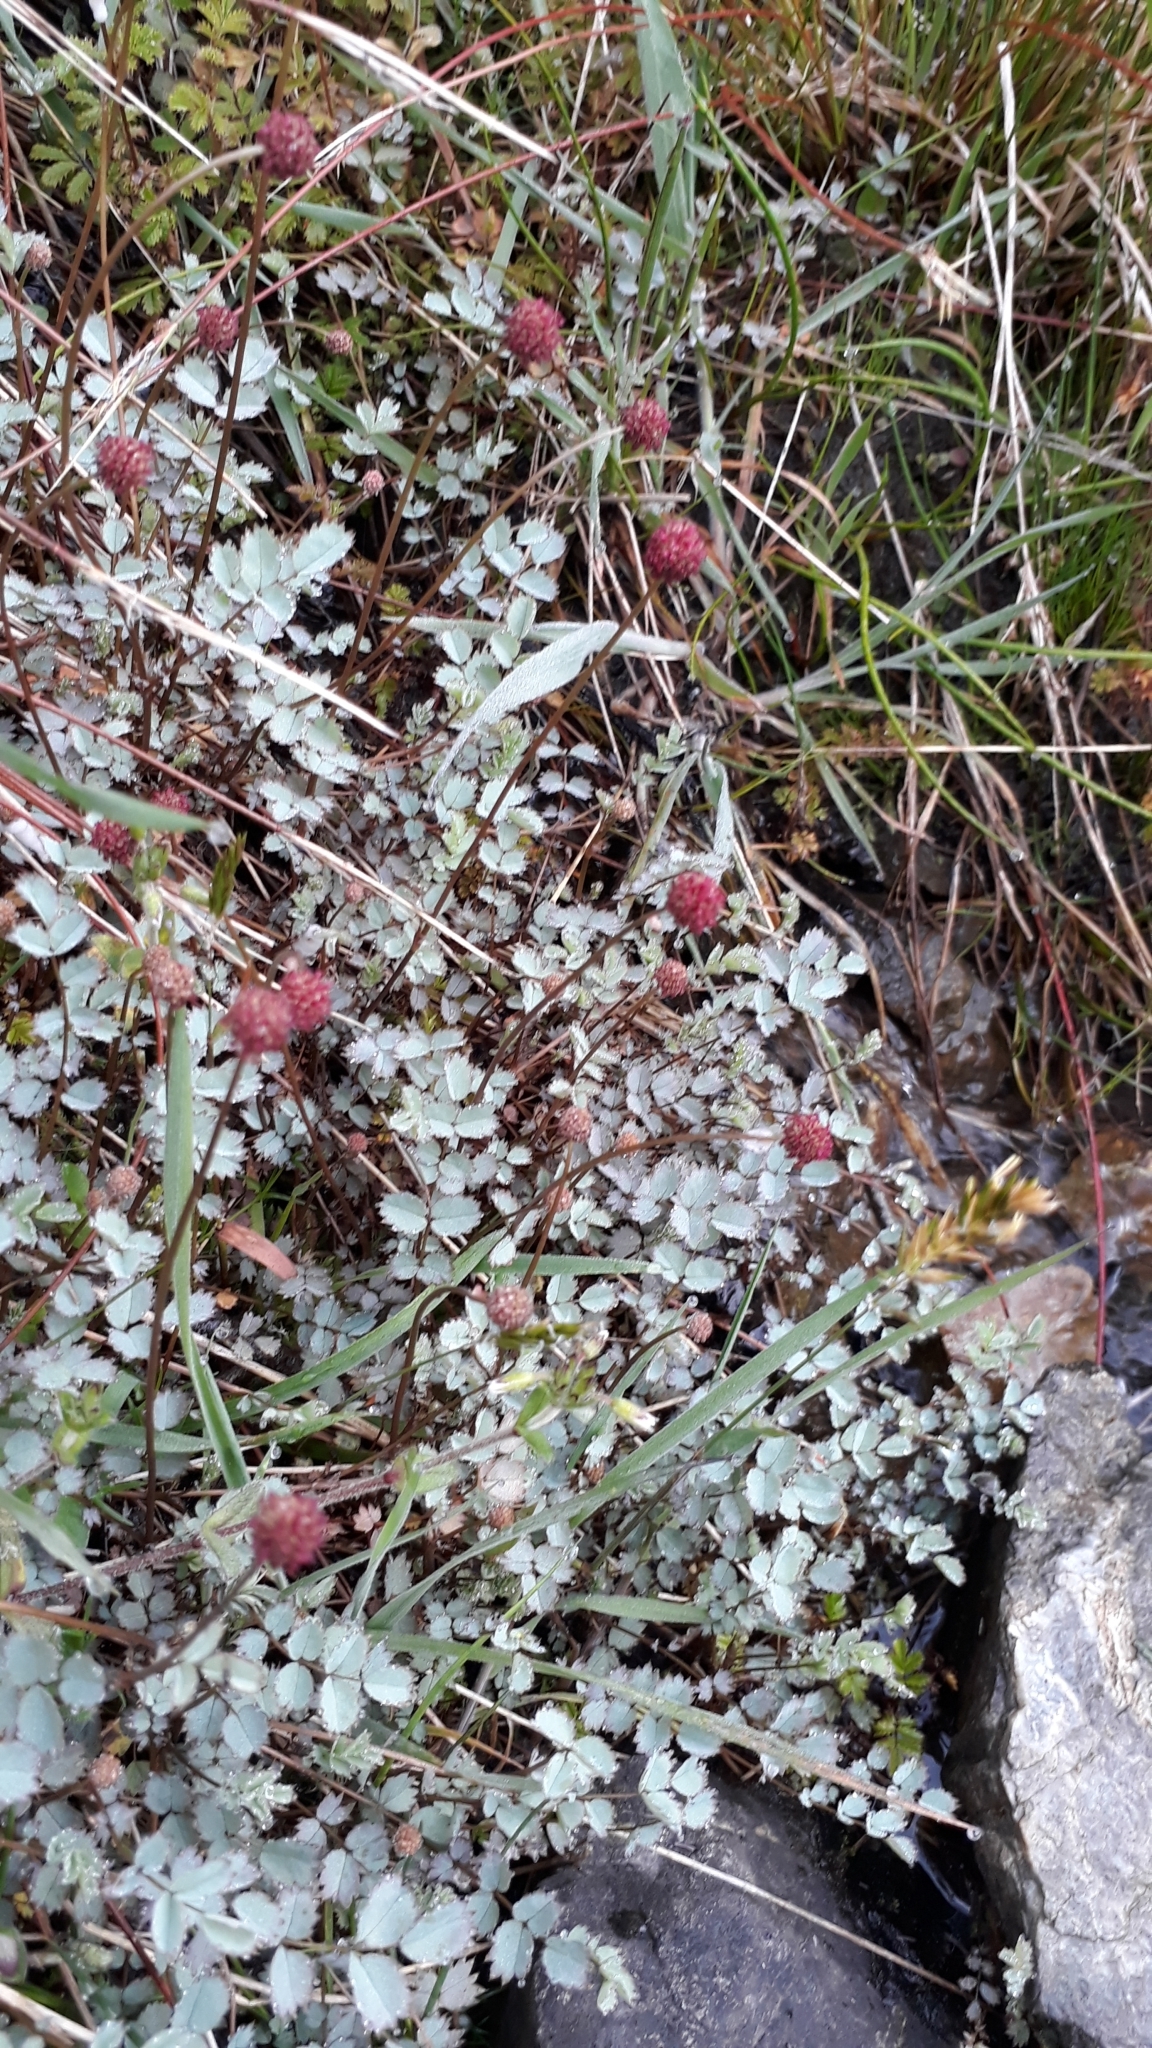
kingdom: Plantae
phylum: Tracheophyta
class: Magnoliopsida
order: Rosales
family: Rosaceae
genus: Acaena
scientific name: Acaena caesiiglauca
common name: Glaucous pirri-pirri-bur
